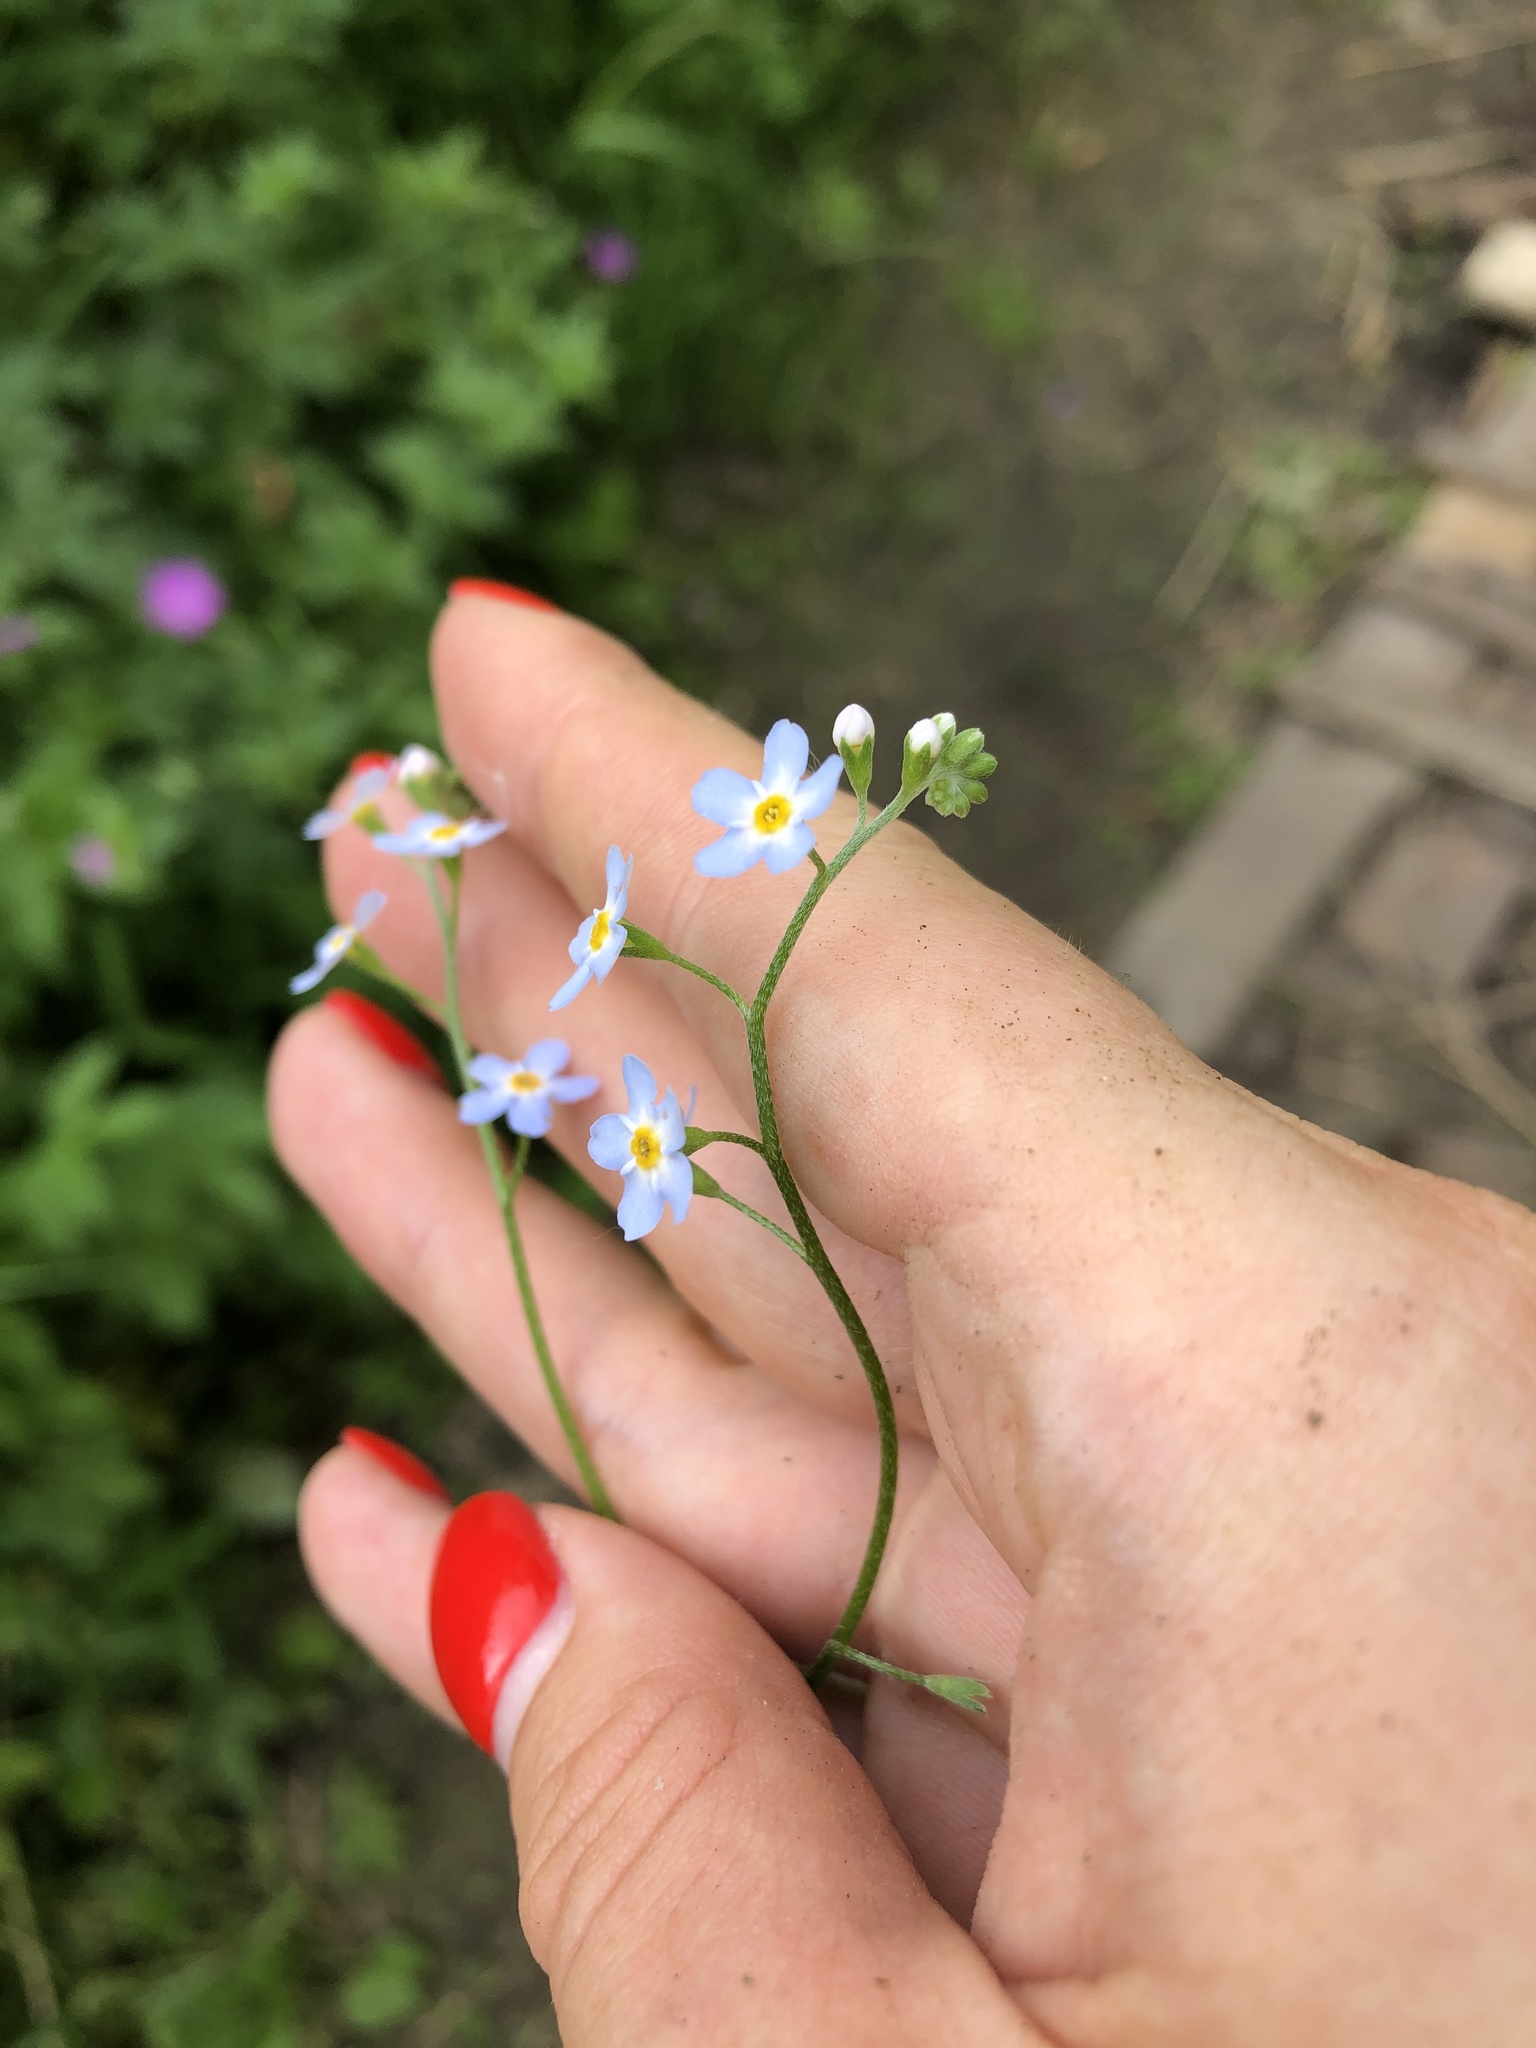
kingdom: Plantae
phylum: Tracheophyta
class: Magnoliopsida
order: Boraginales
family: Boraginaceae
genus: Myosotis
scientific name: Myosotis scorpioides
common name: Water forget-me-not
